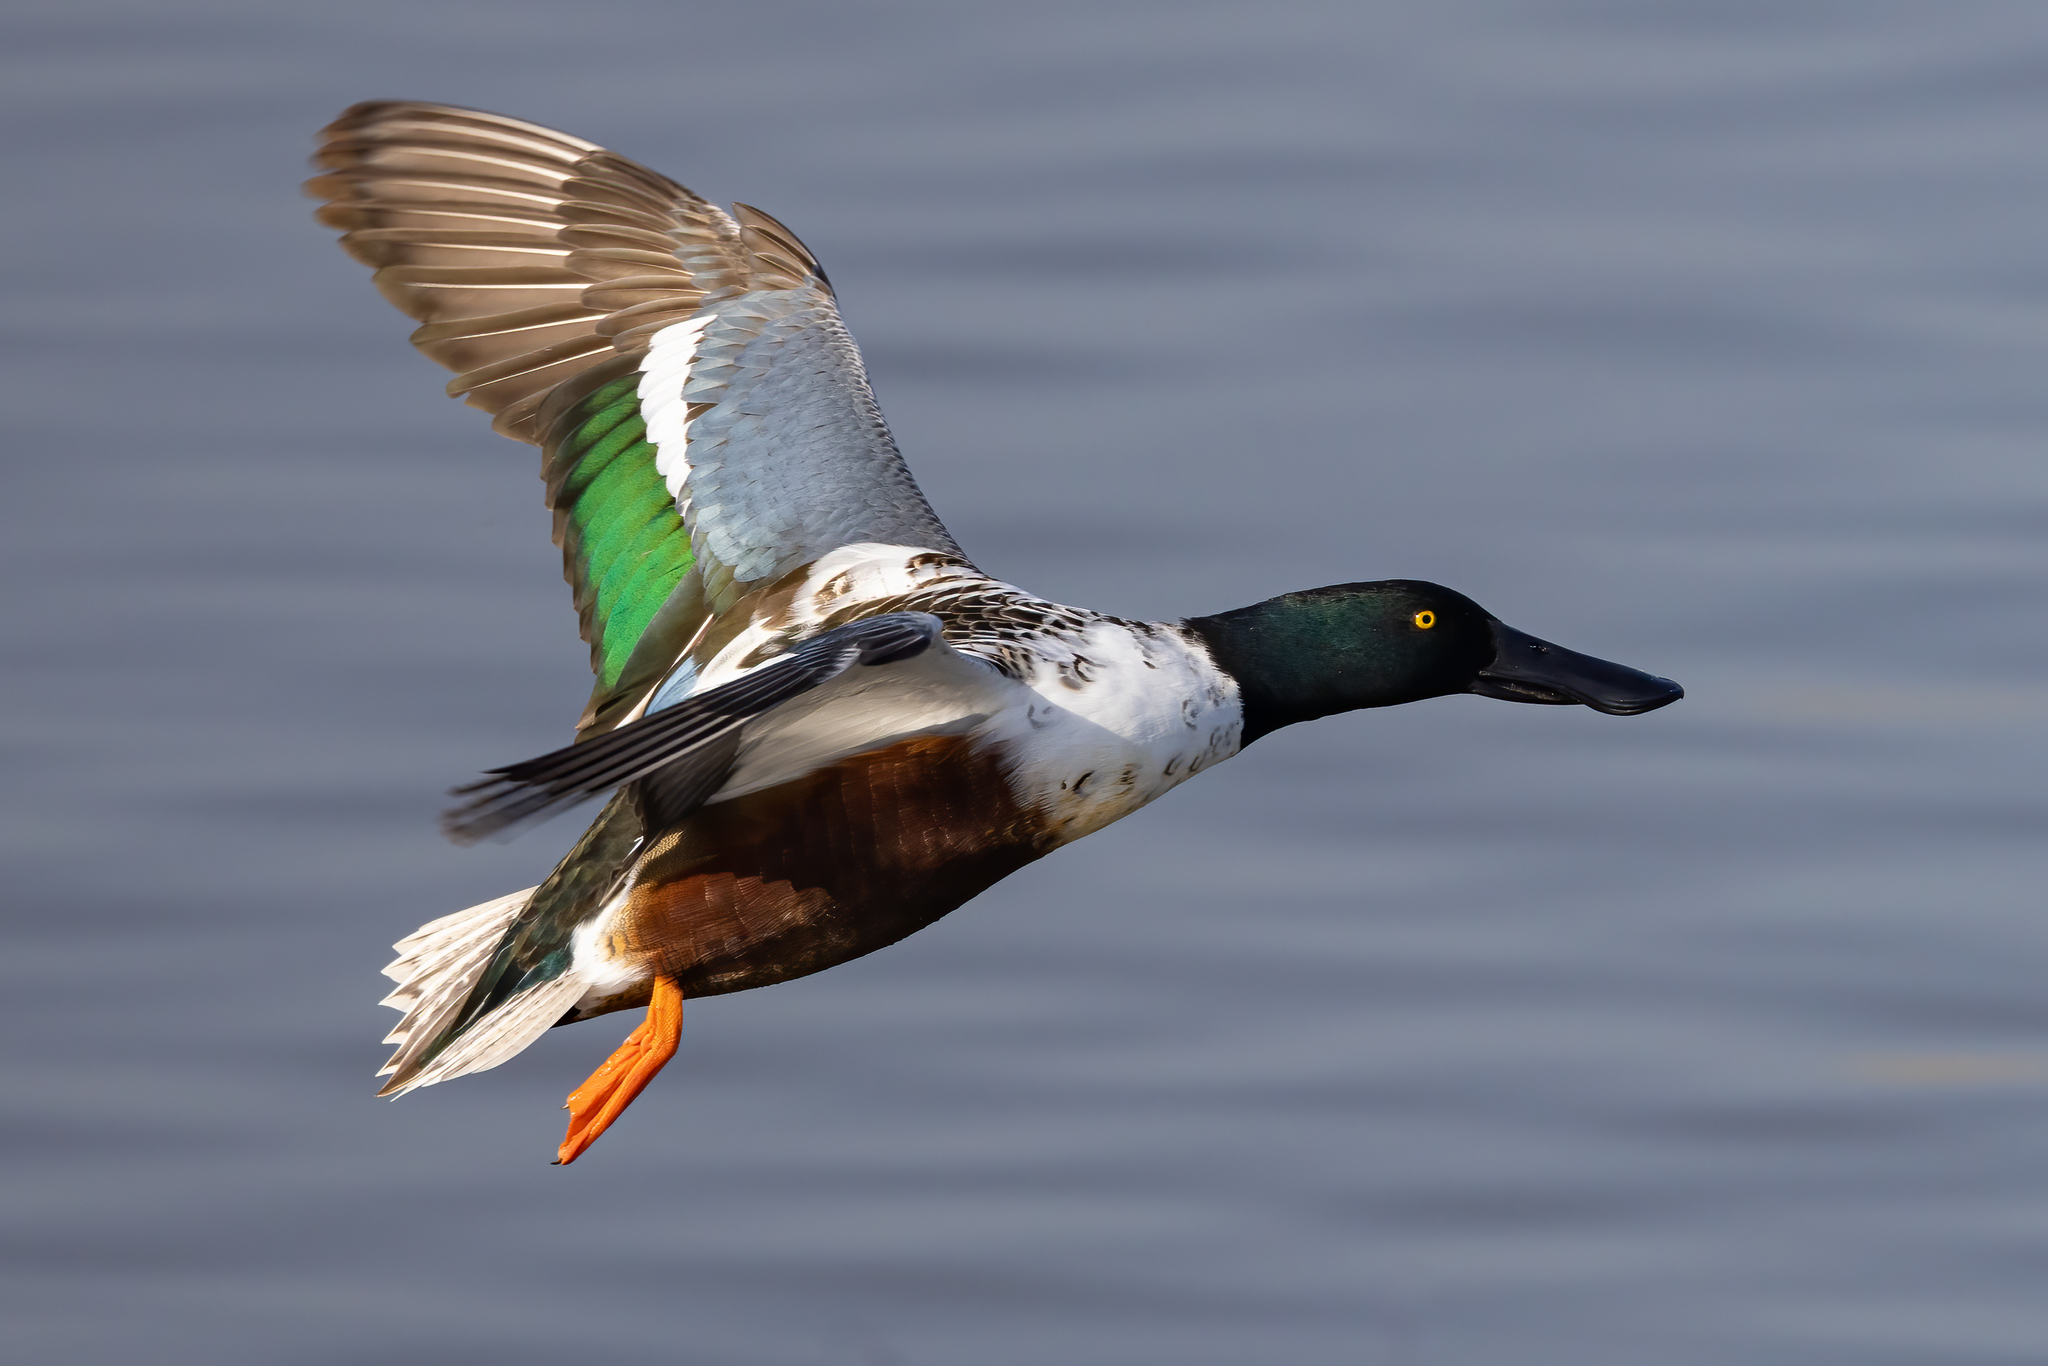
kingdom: Animalia
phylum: Chordata
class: Aves
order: Anseriformes
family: Anatidae
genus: Spatula
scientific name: Spatula clypeata
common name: Northern shoveler
